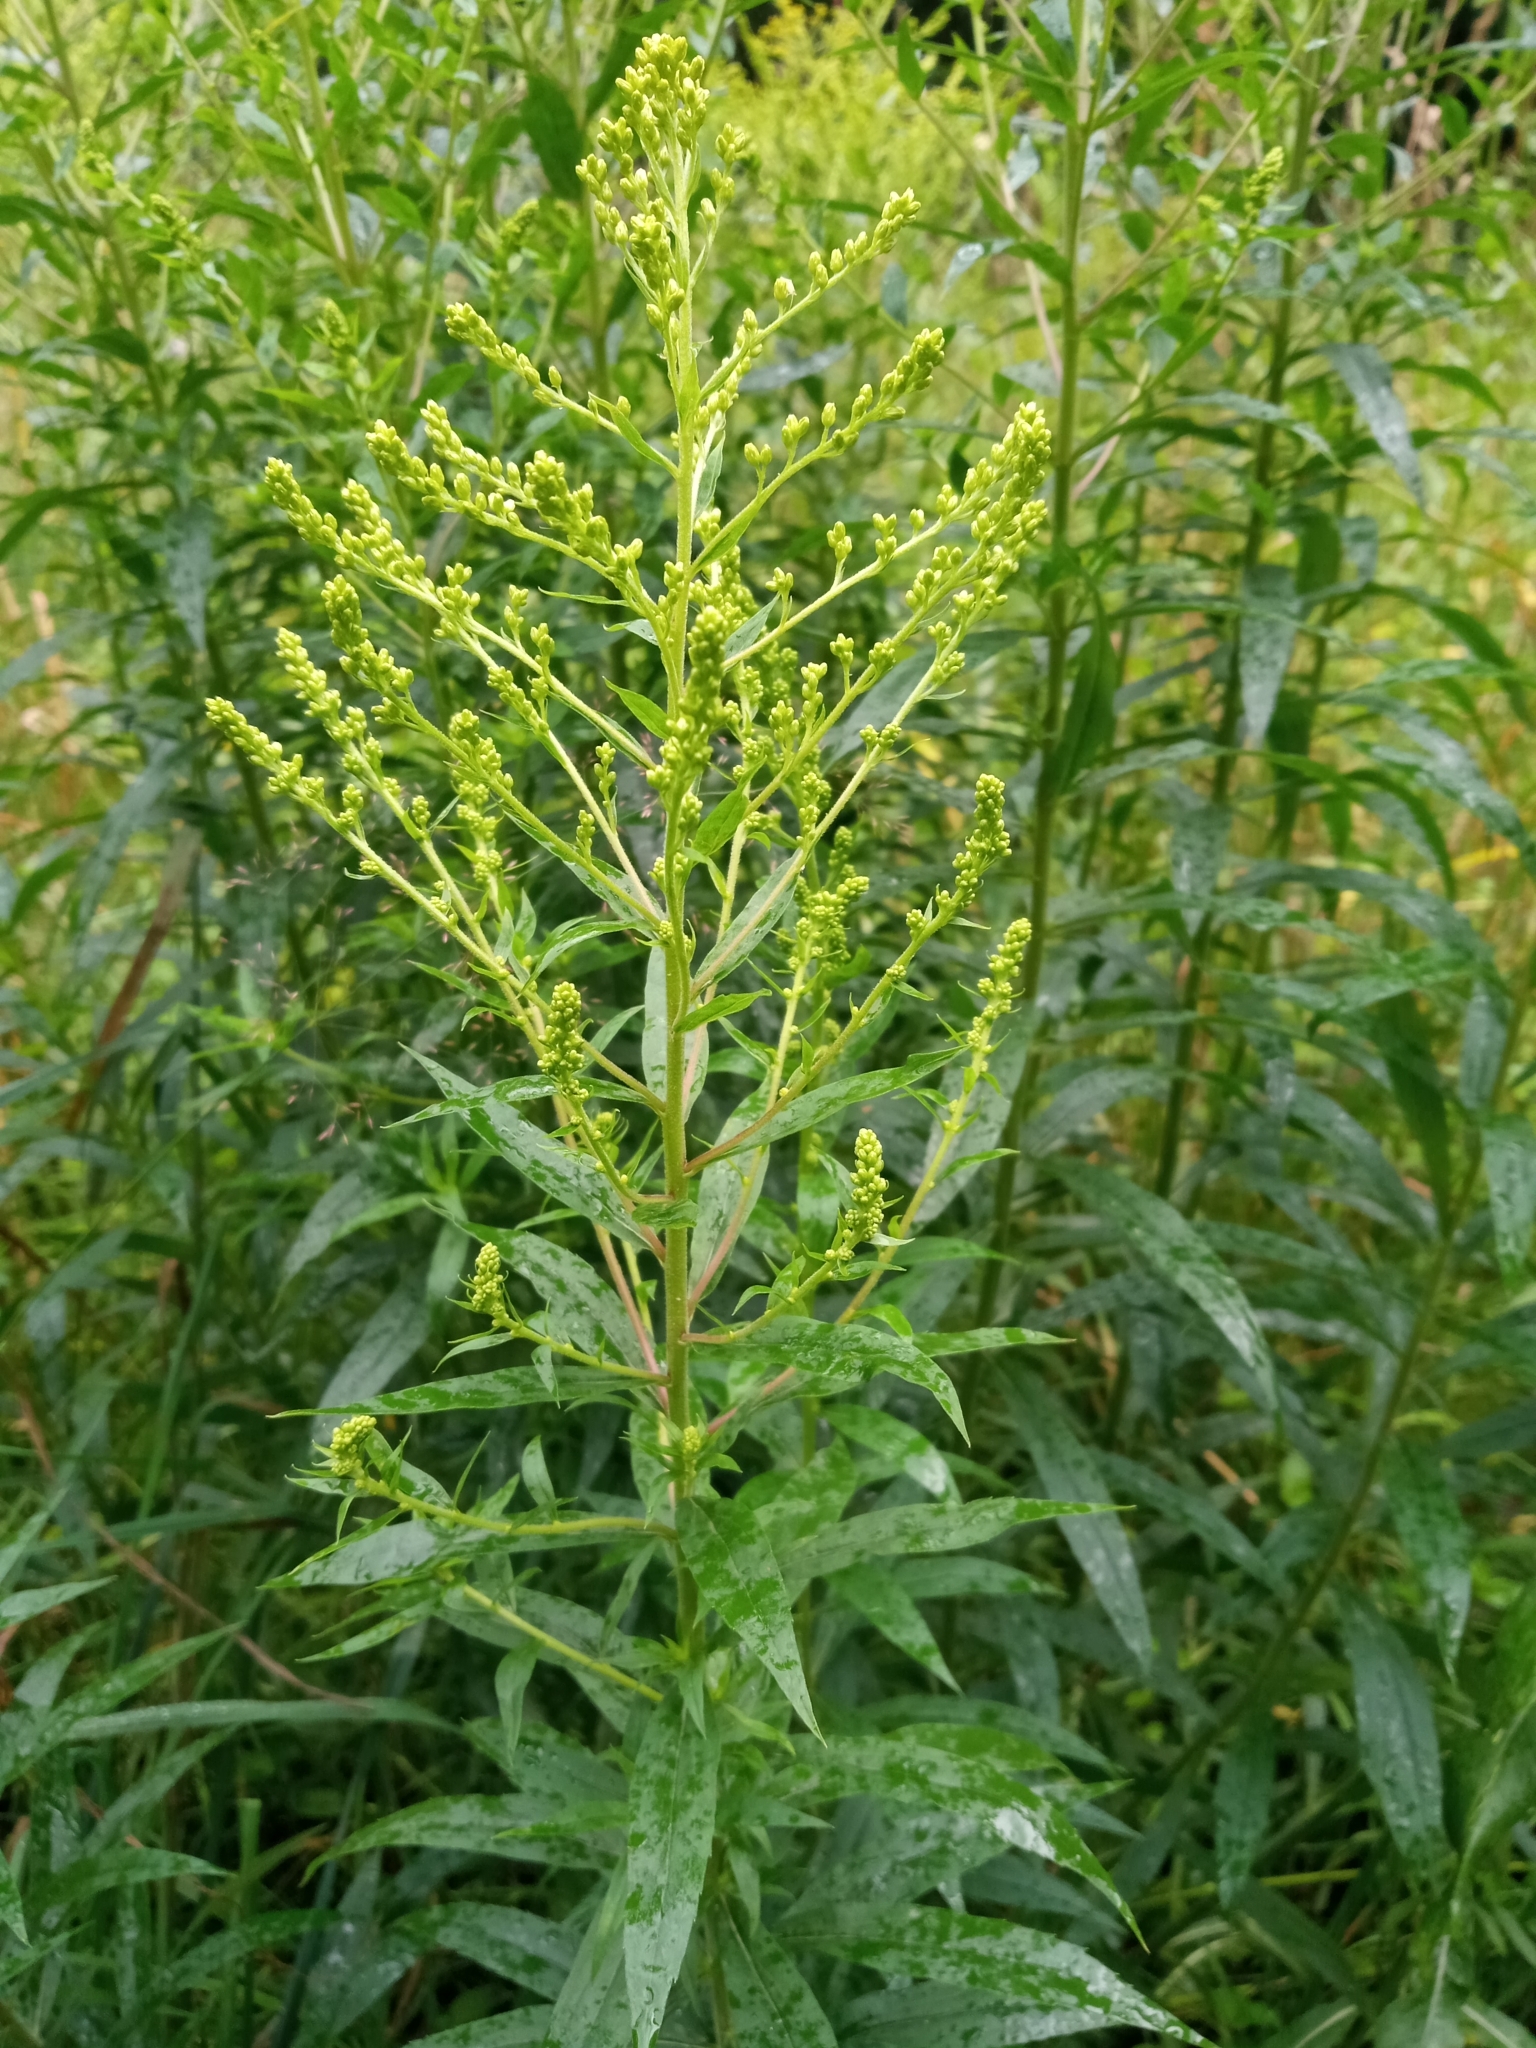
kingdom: Plantae
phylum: Tracheophyta
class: Magnoliopsida
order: Asterales
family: Asteraceae
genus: Solidago
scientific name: Solidago canadensis
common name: Canada goldenrod
